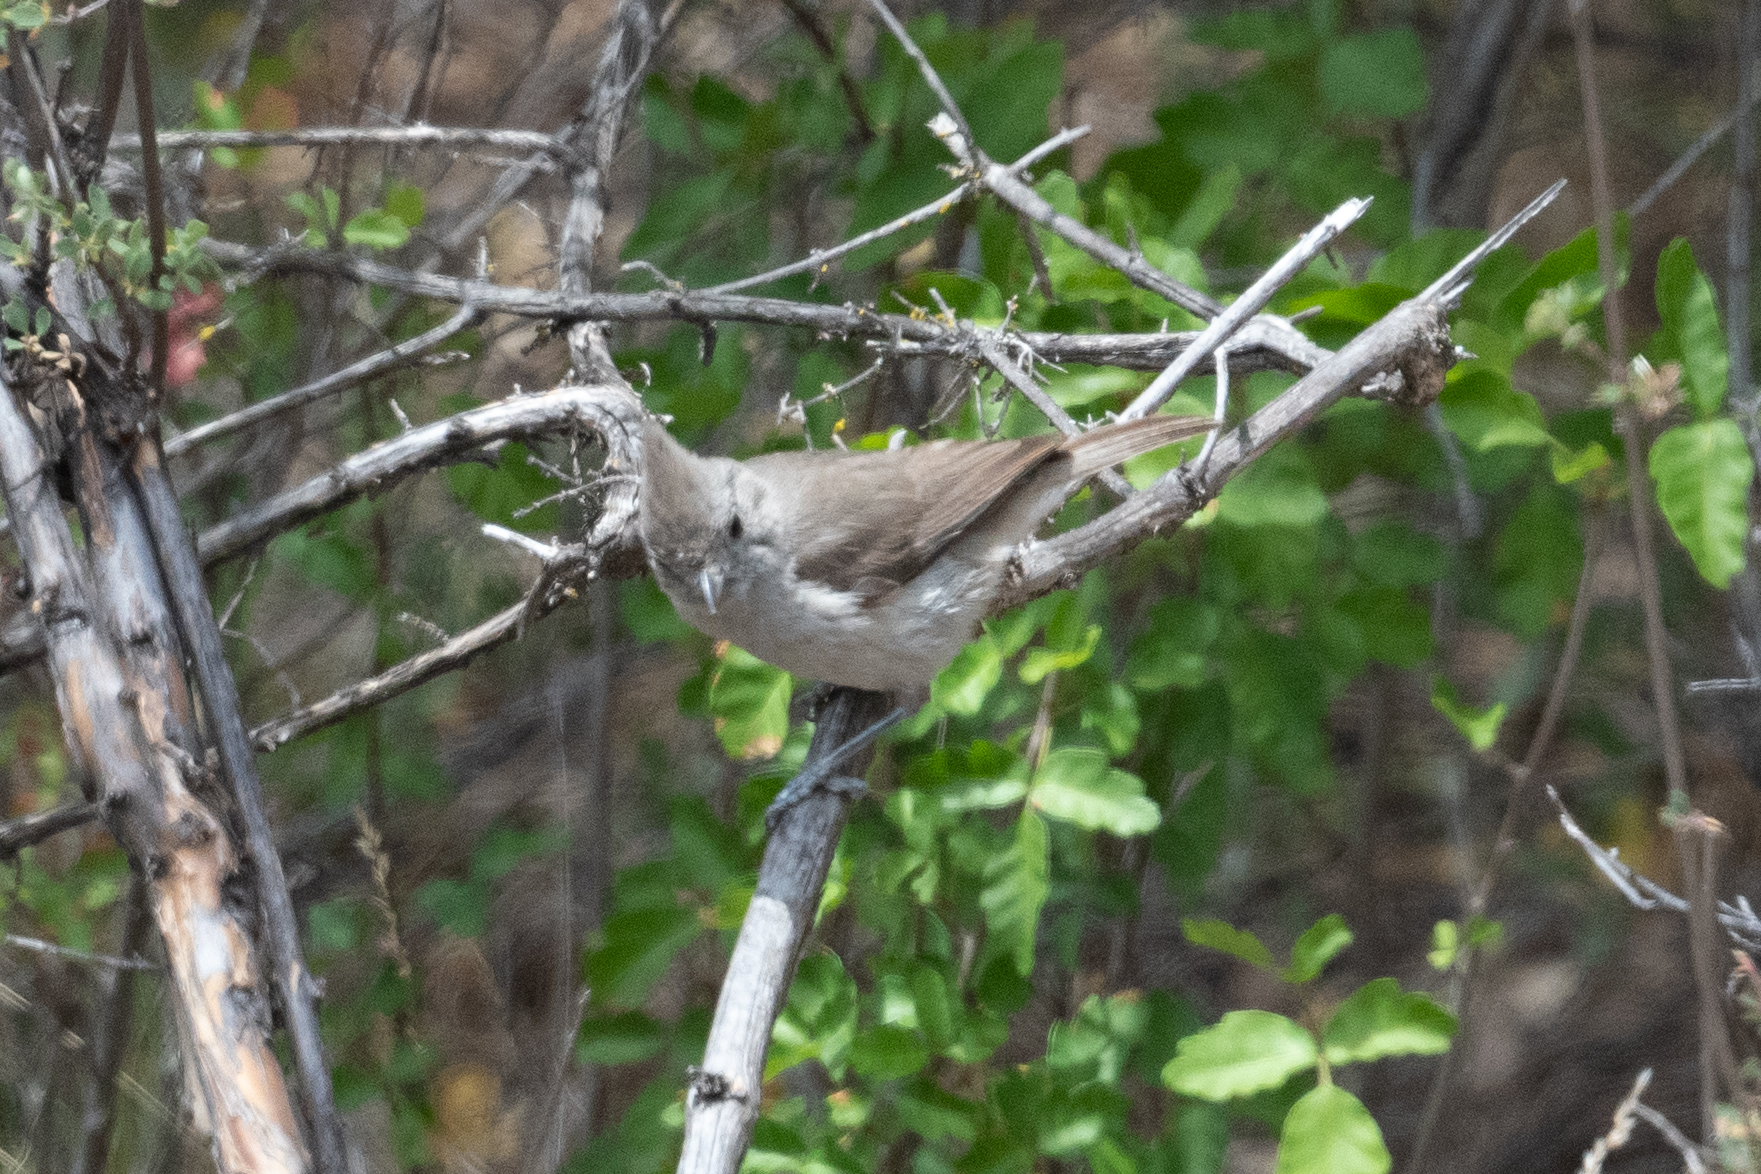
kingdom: Animalia
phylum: Chordata
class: Aves
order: Passeriformes
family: Paridae
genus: Baeolophus
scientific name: Baeolophus inornatus
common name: Oak titmouse
